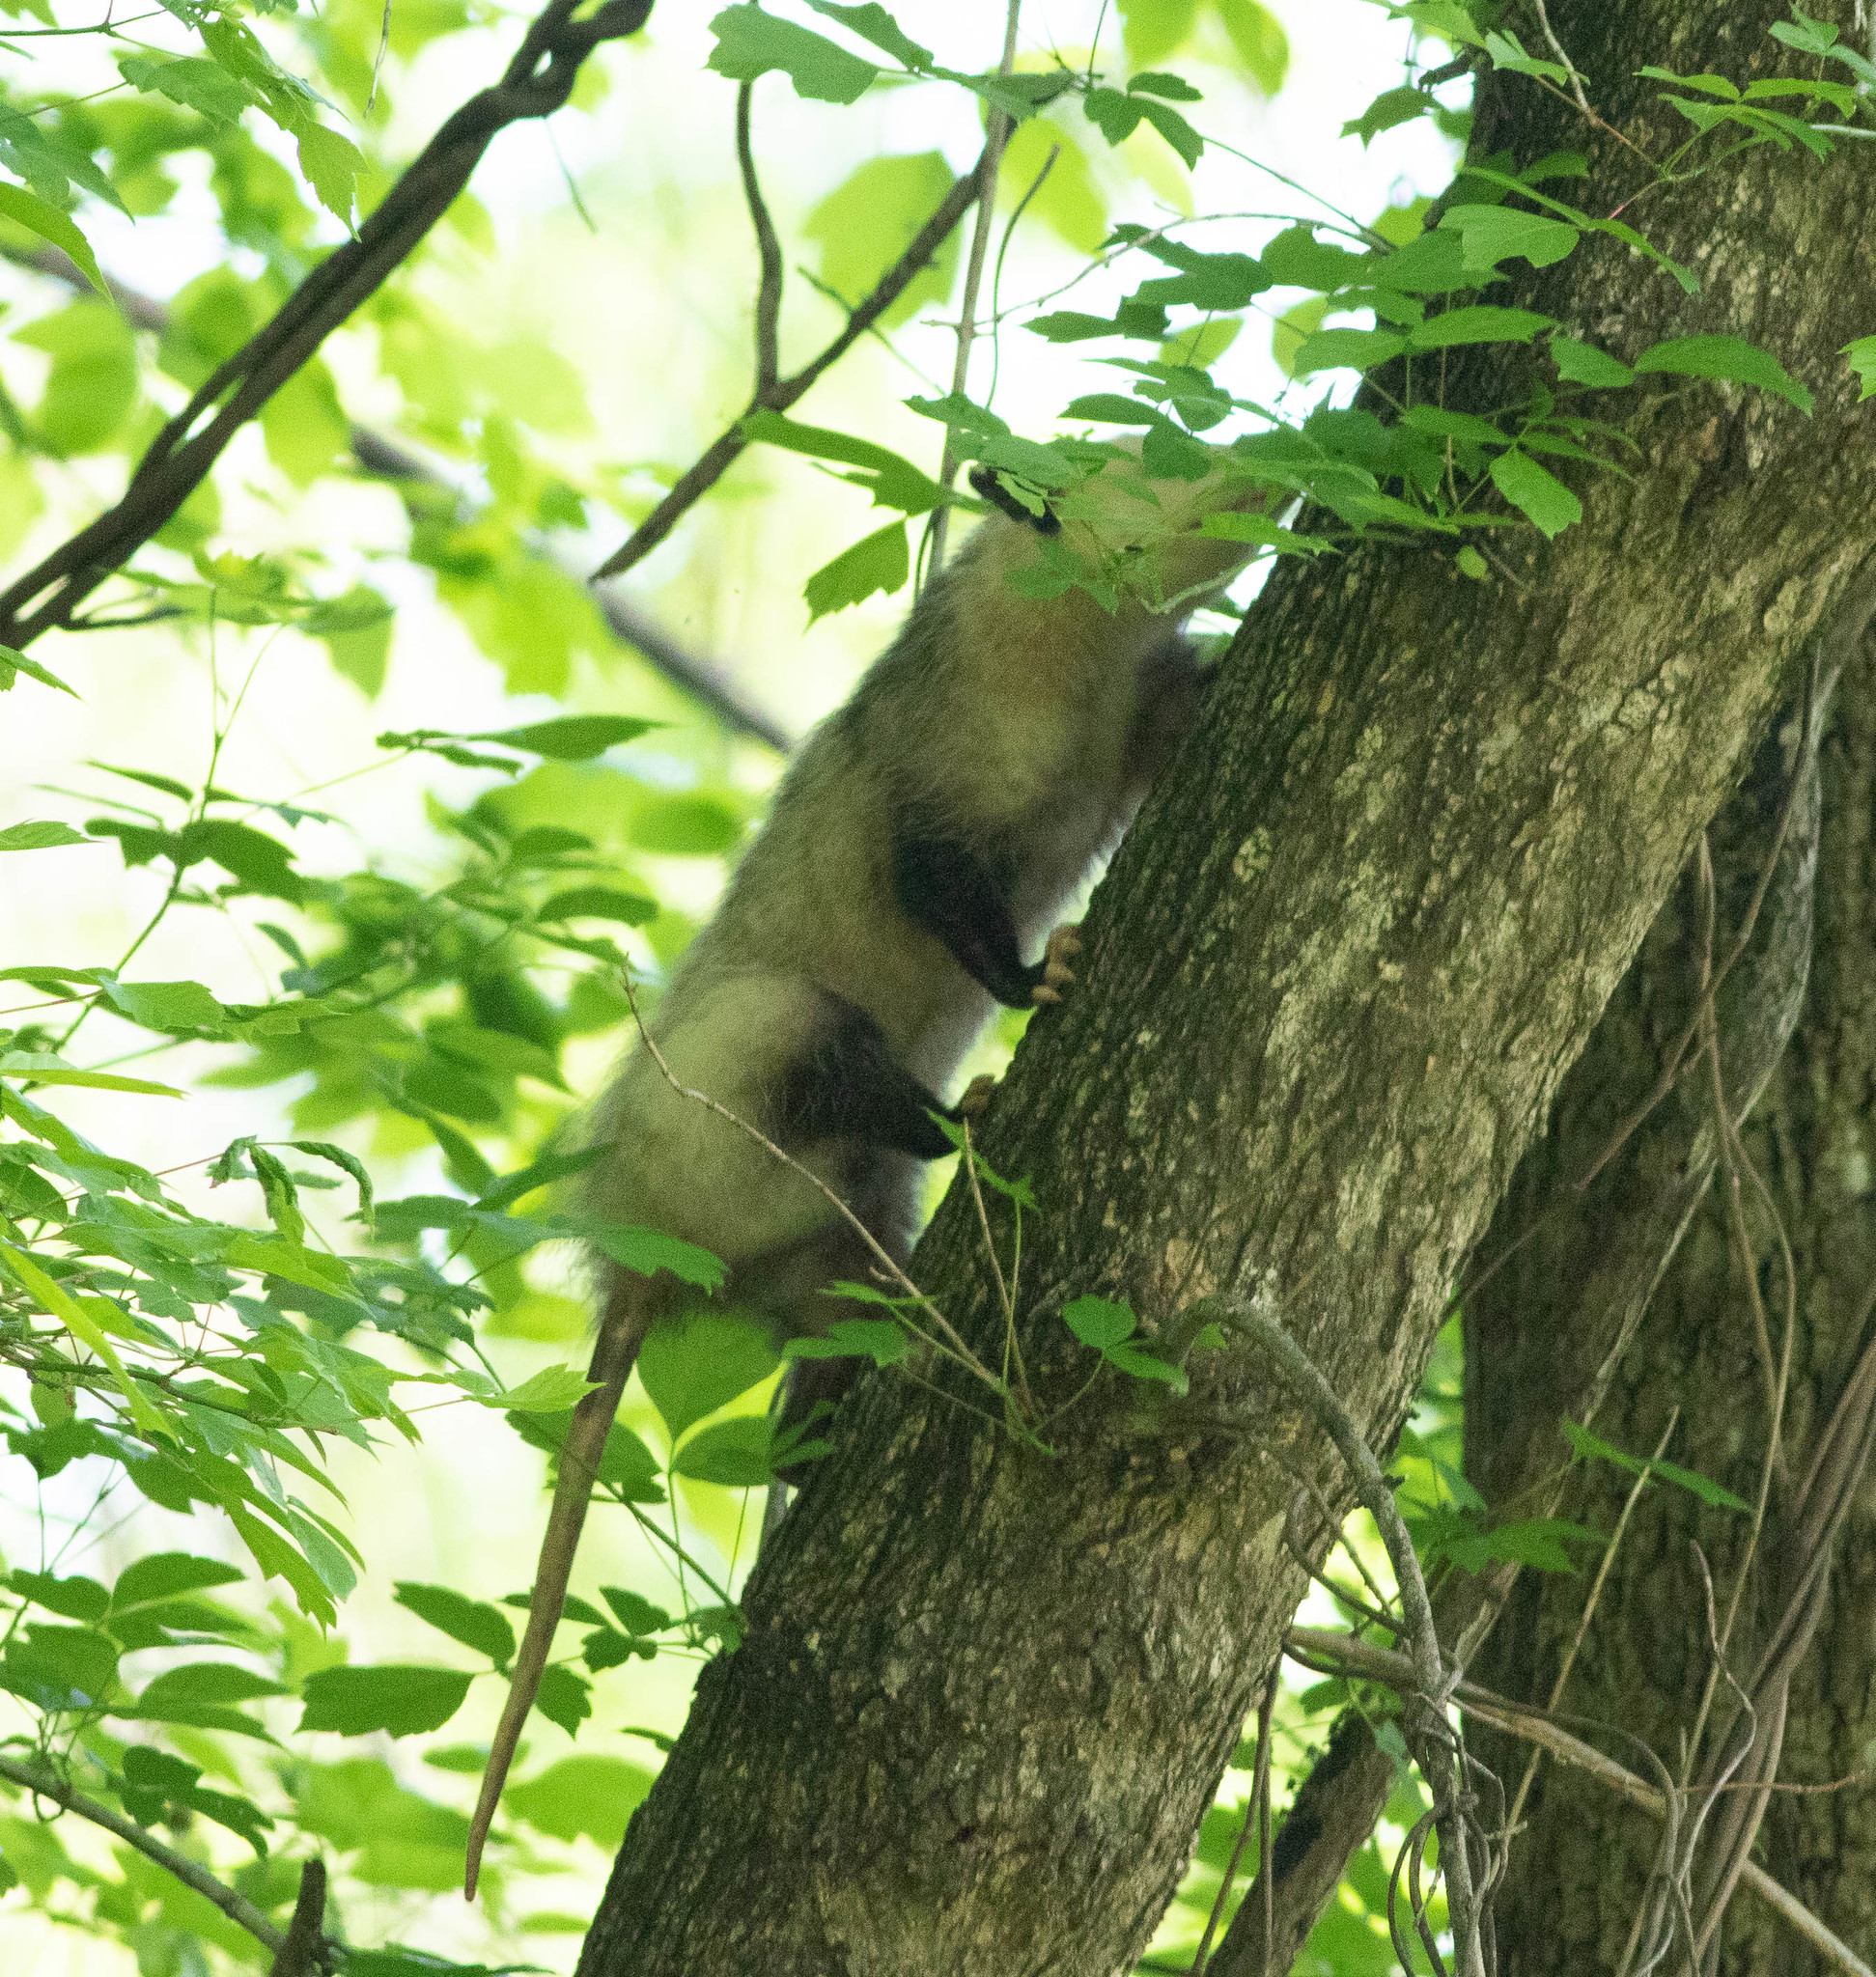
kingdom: Animalia
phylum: Chordata
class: Mammalia
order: Didelphimorphia
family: Didelphidae
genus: Didelphis
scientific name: Didelphis virginiana
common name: Virginia opossum
